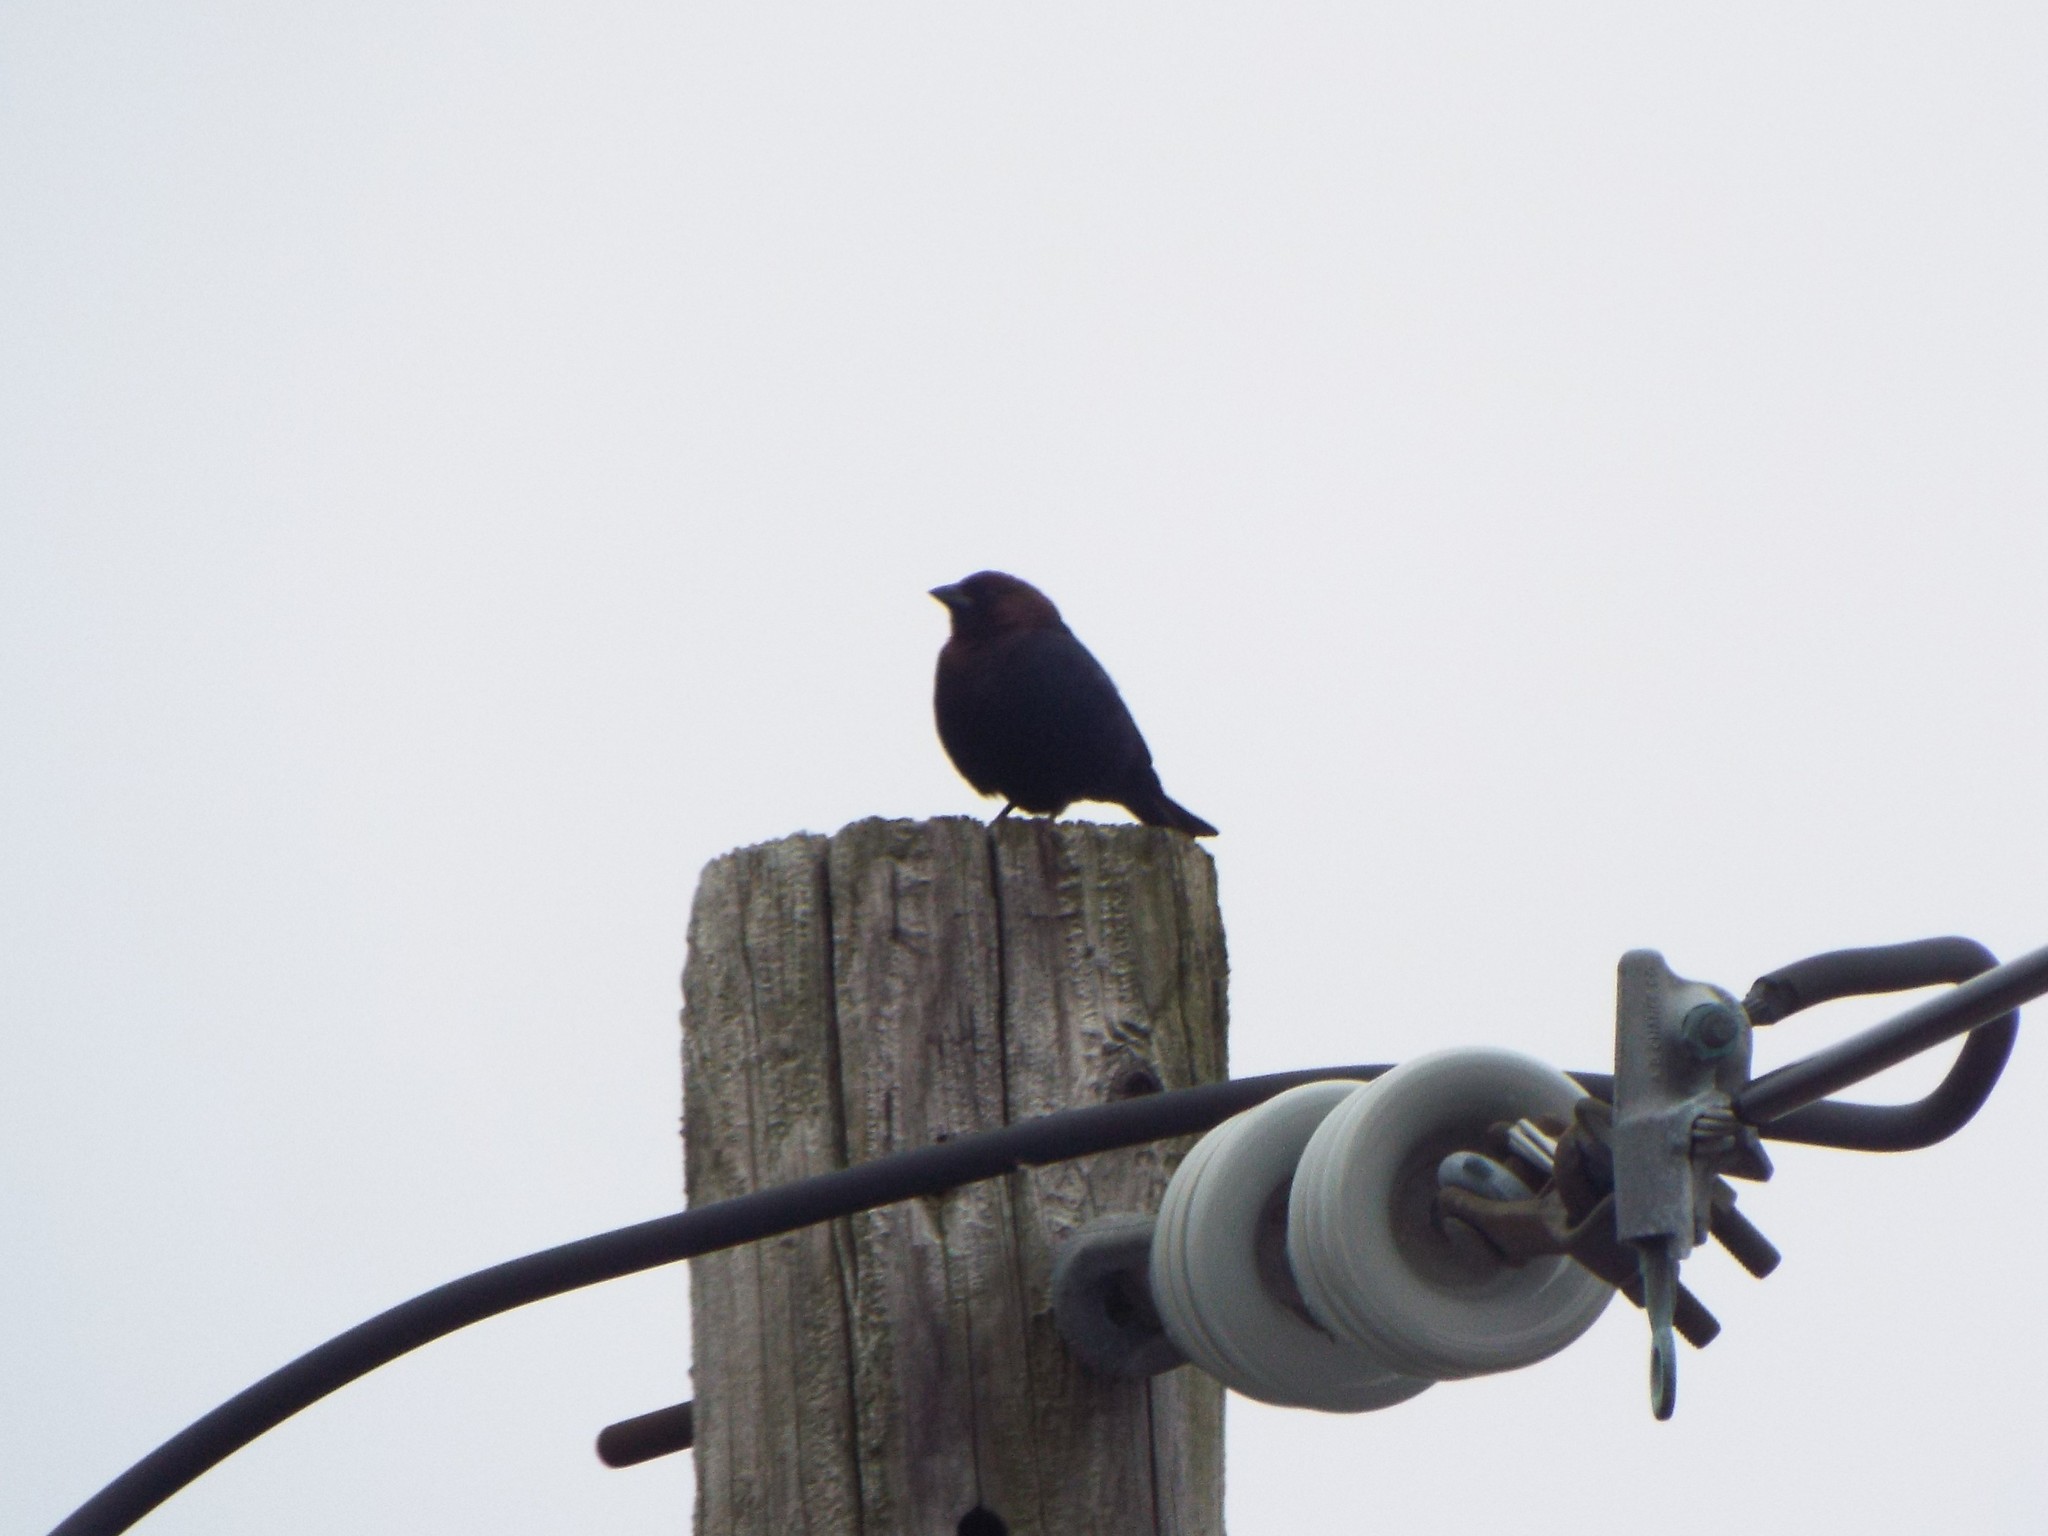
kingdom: Animalia
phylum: Chordata
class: Aves
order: Passeriformes
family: Icteridae
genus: Molothrus
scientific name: Molothrus ater
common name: Brown-headed cowbird
